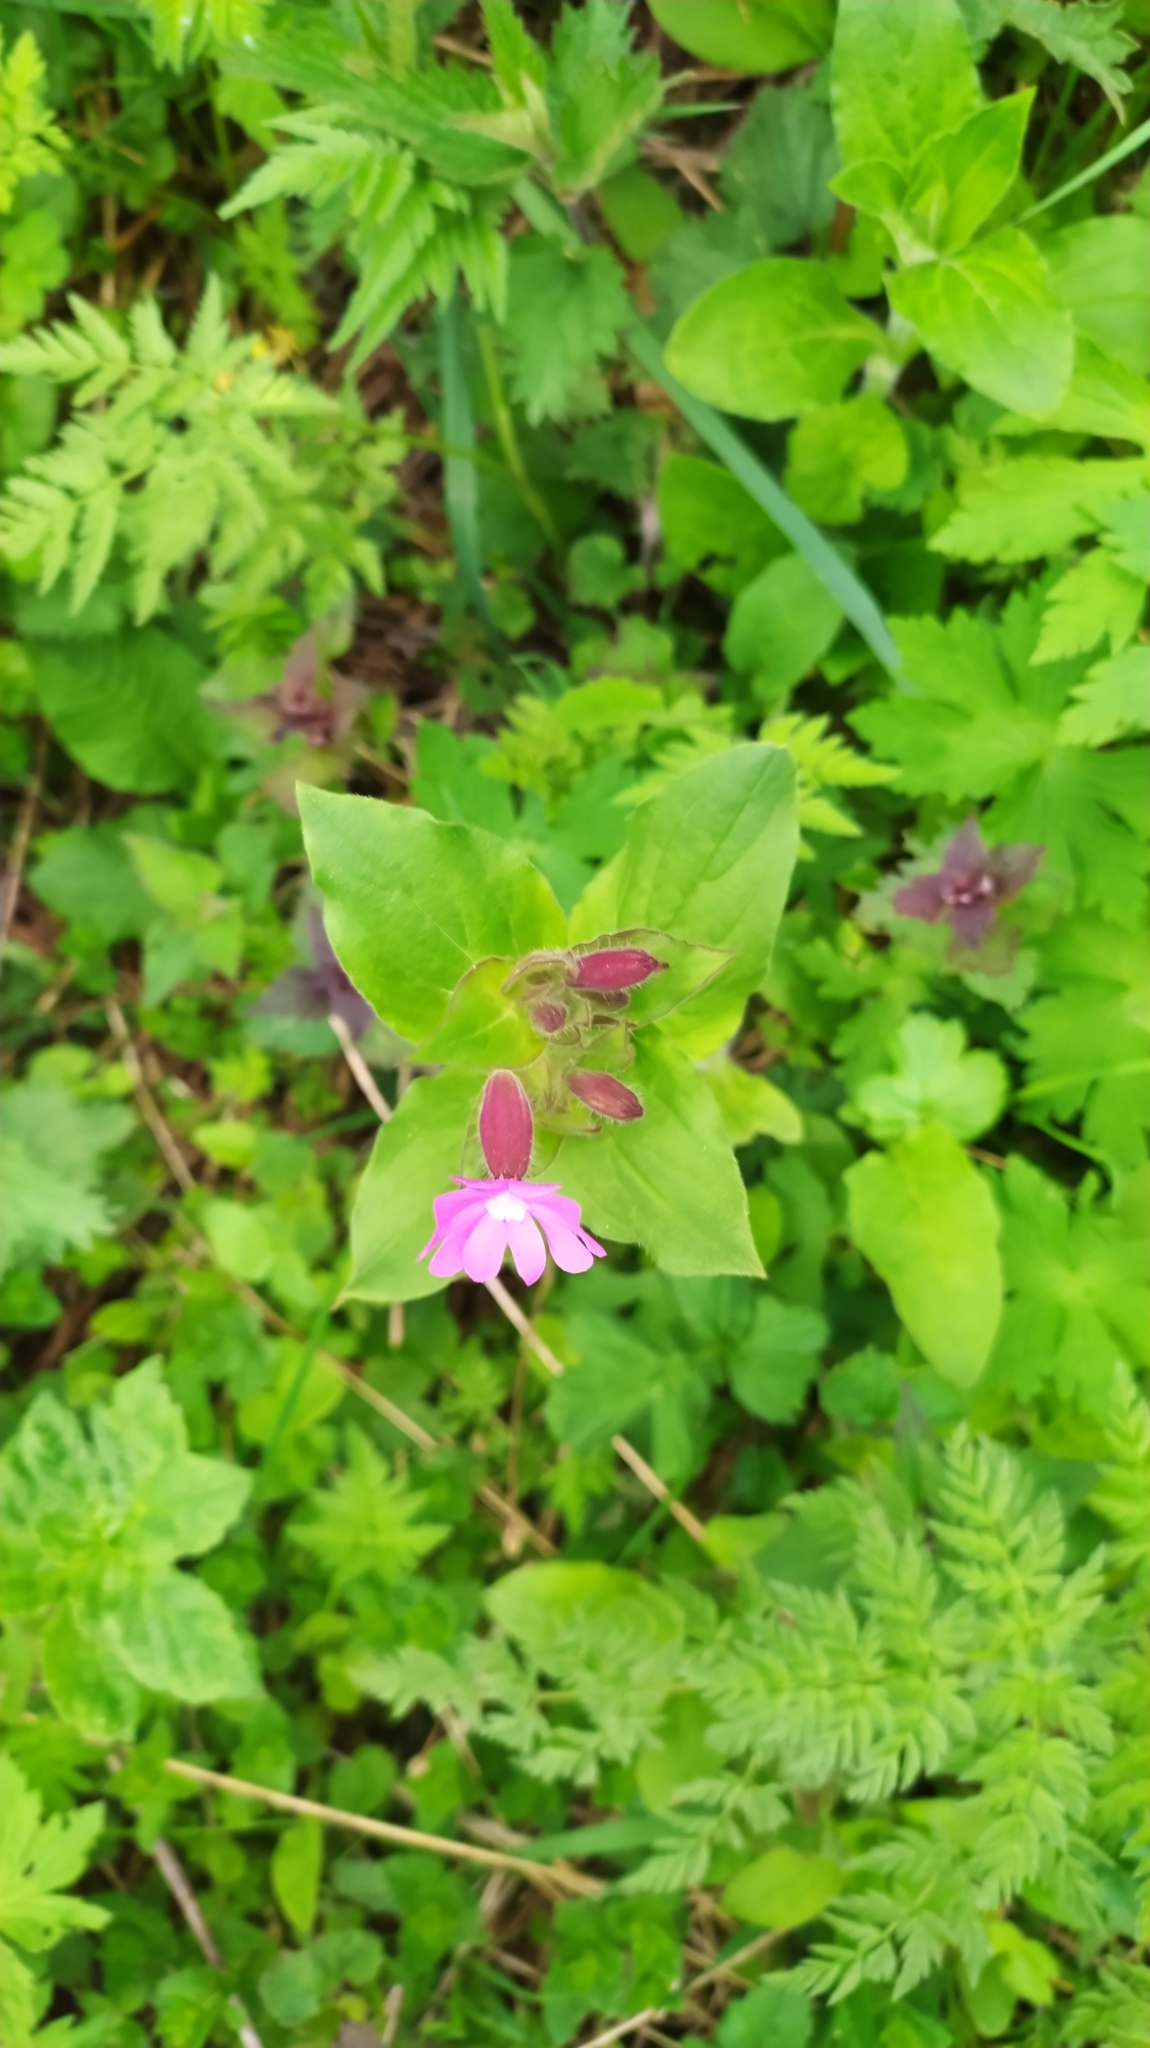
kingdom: Plantae
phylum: Tracheophyta
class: Magnoliopsida
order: Caryophyllales
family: Caryophyllaceae
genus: Silene
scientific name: Silene dioica
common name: Red campion
